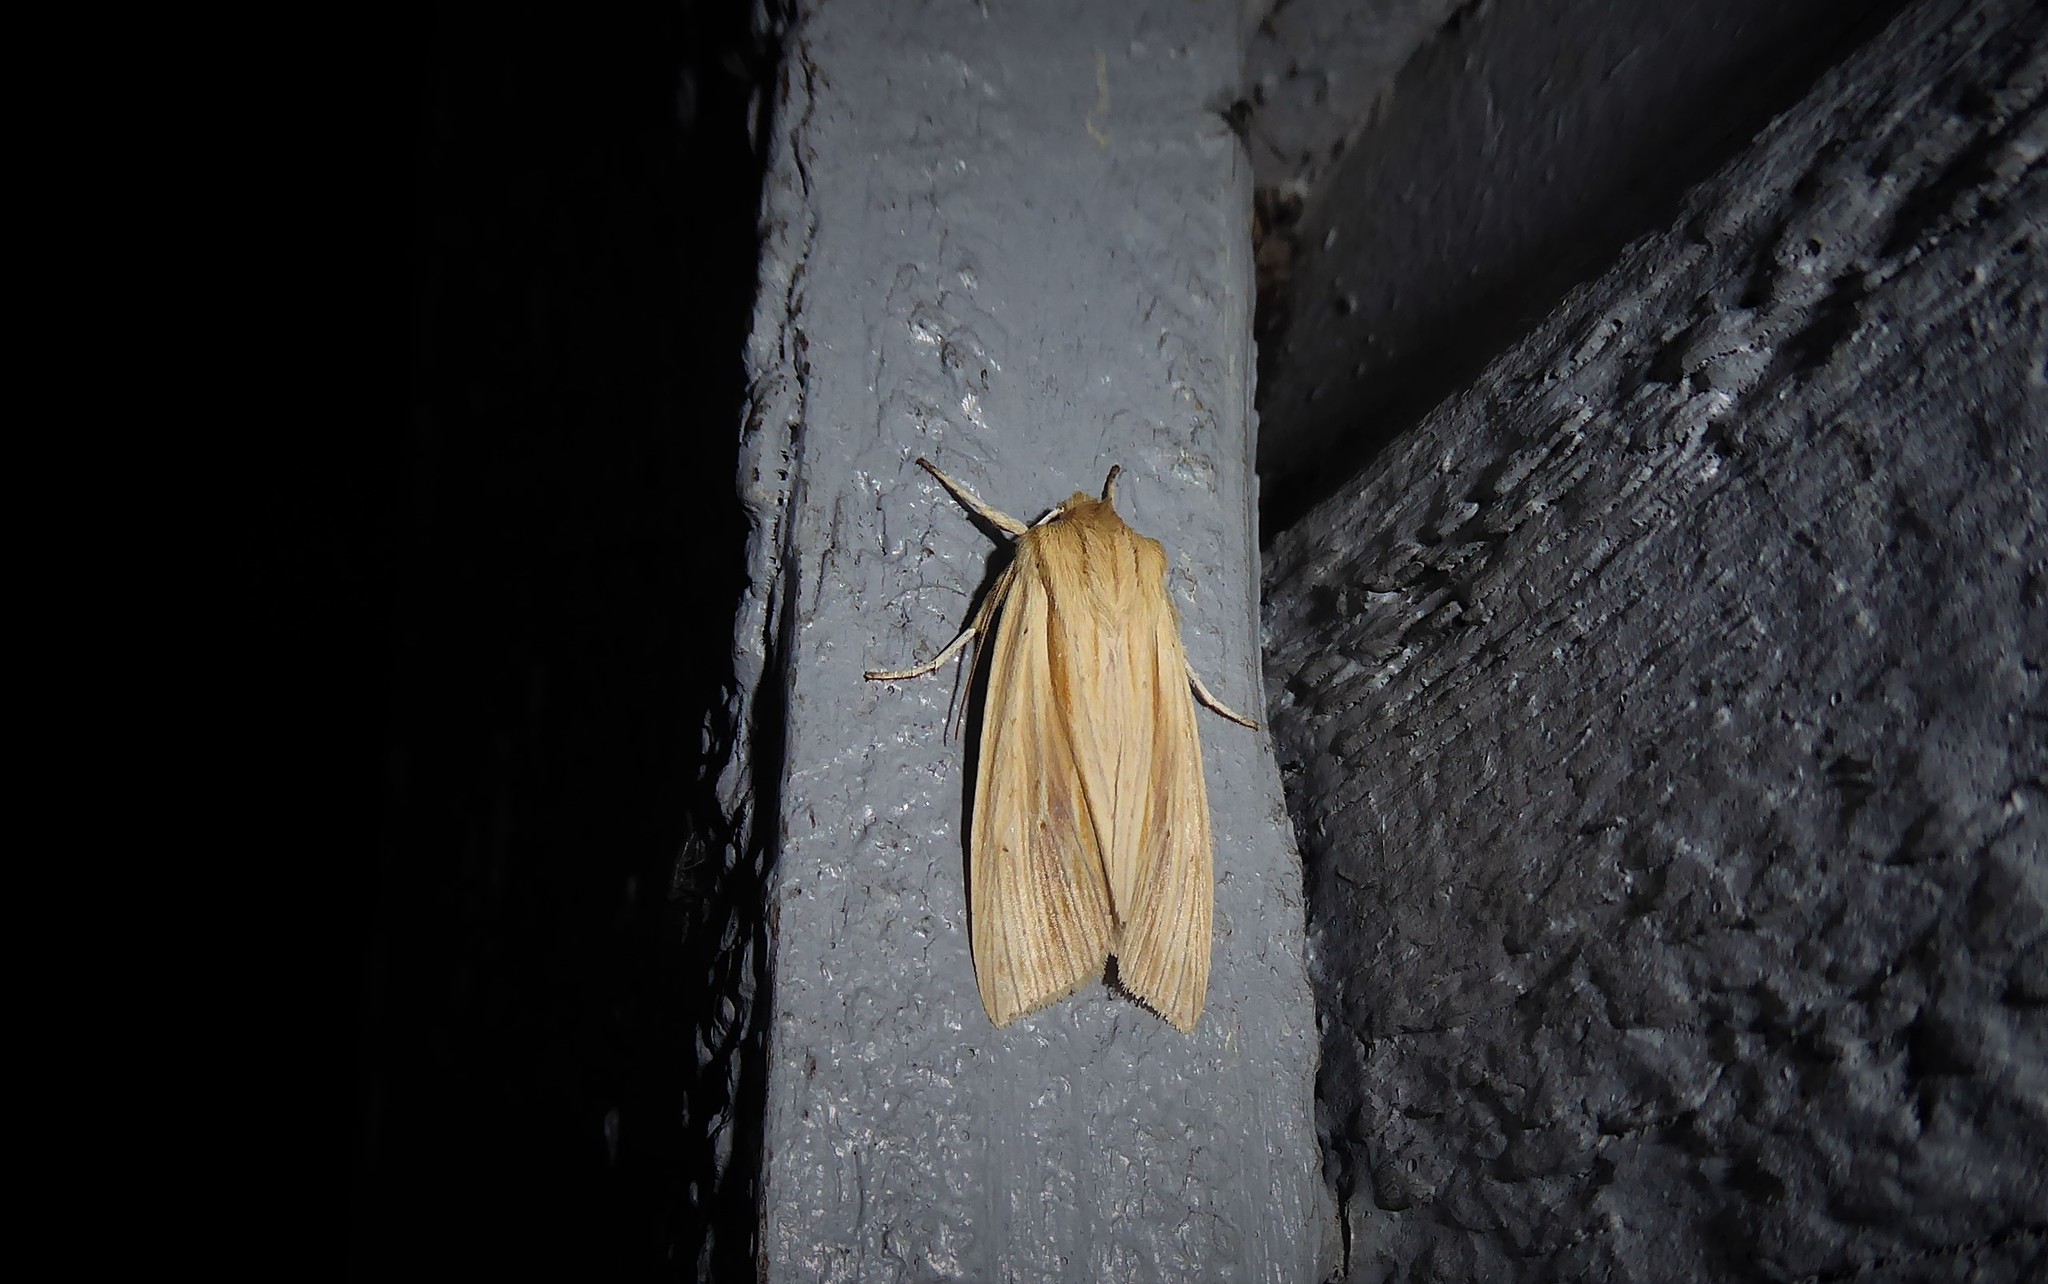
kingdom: Animalia
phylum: Arthropoda
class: Insecta
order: Lepidoptera
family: Noctuidae
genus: Ichneutica
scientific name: Ichneutica semivittata
